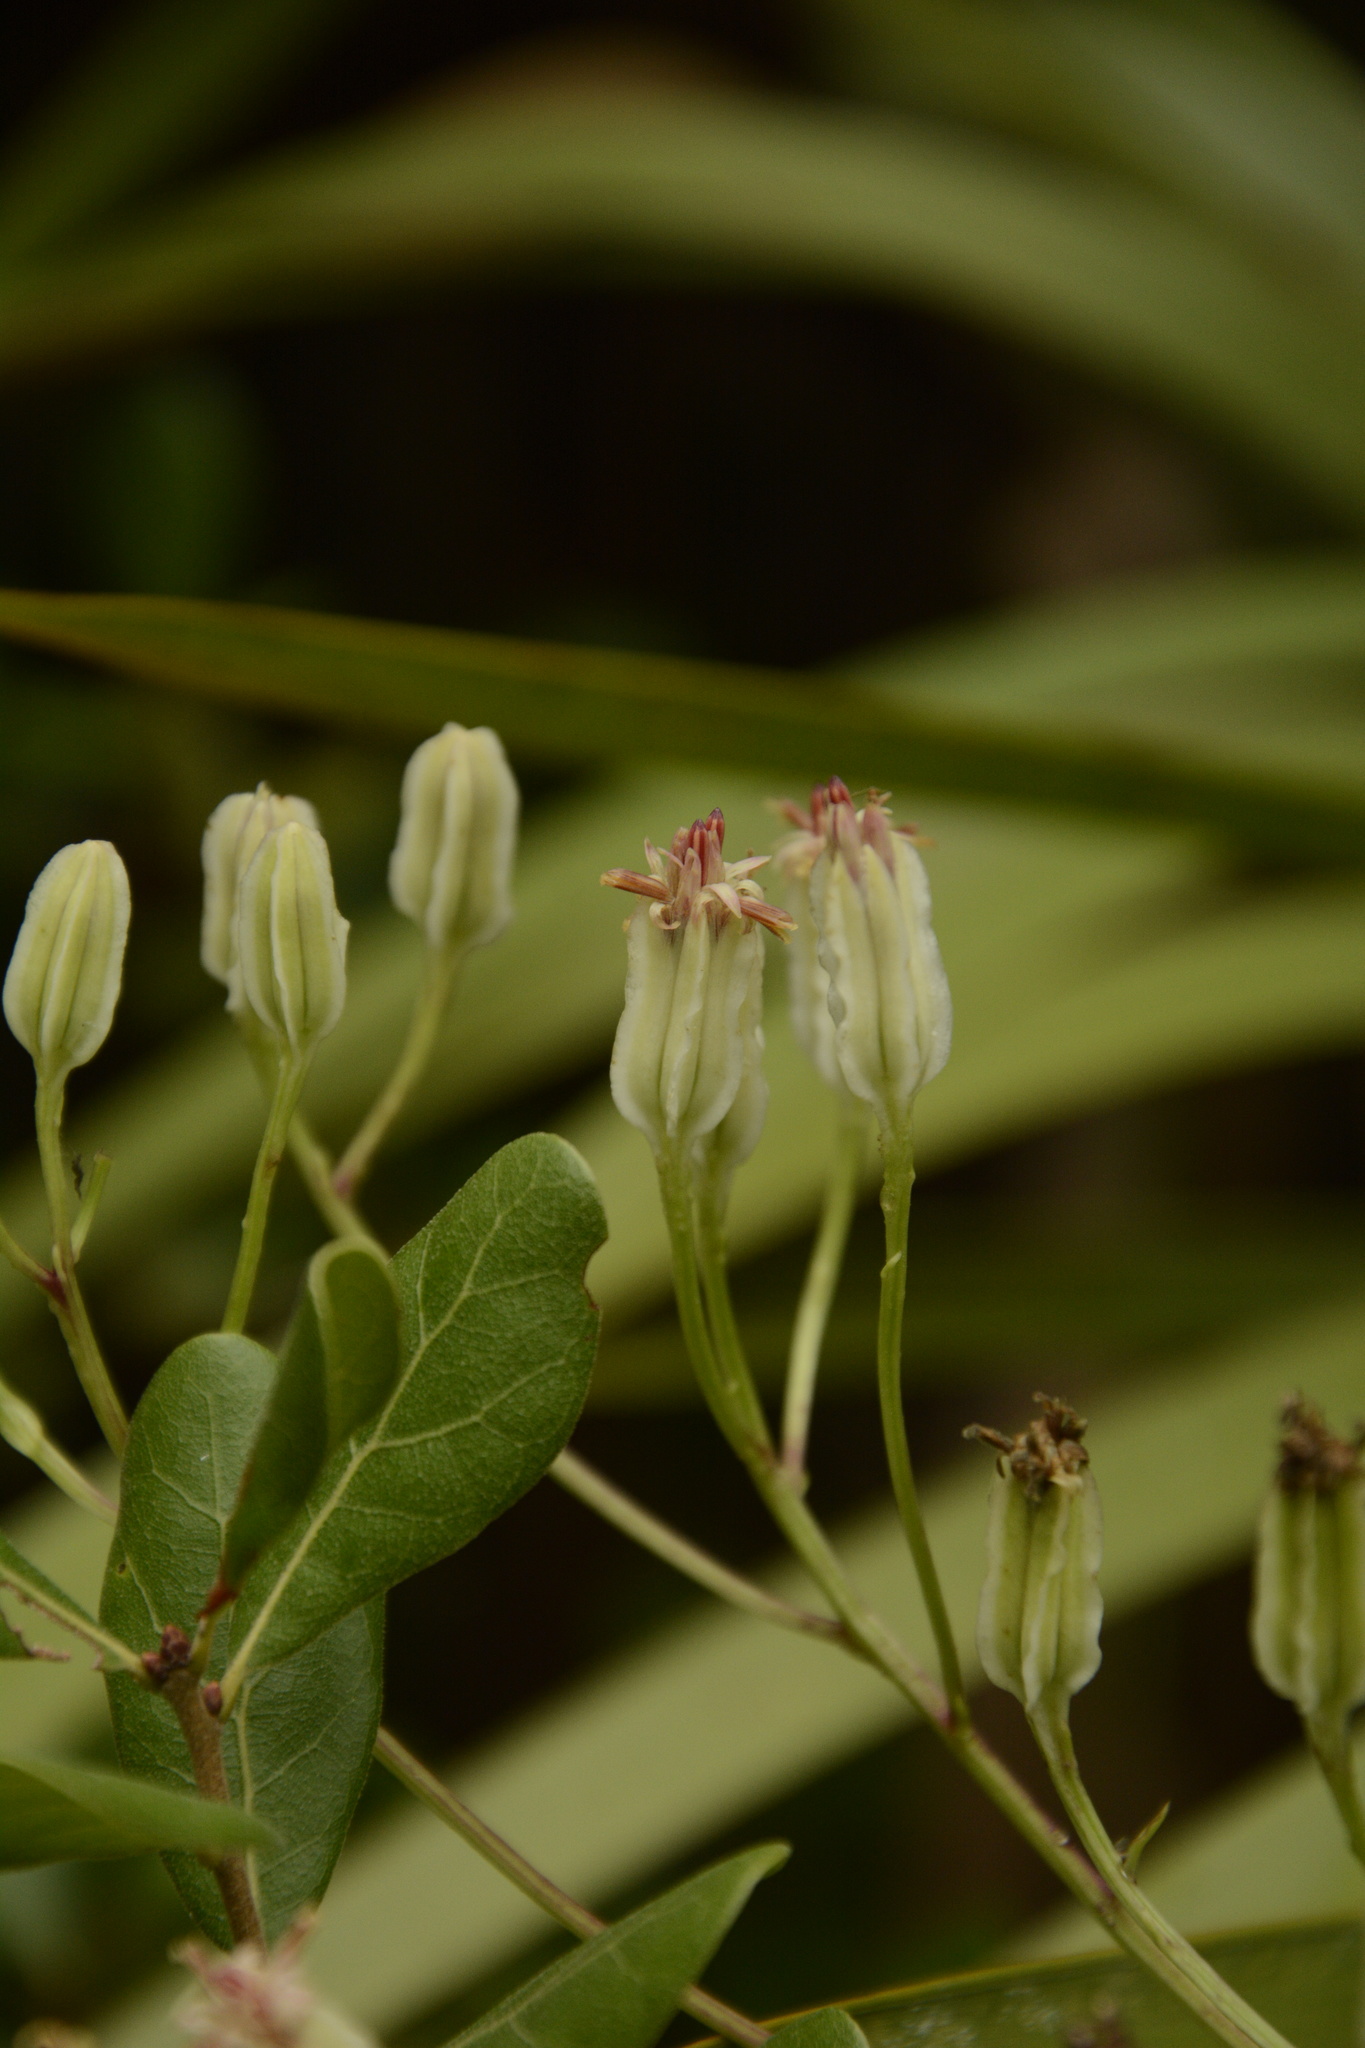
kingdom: Plantae
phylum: Tracheophyta
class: Magnoliopsida
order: Asterales
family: Asteraceae
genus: Arnoglossum
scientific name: Arnoglossum floridanum
